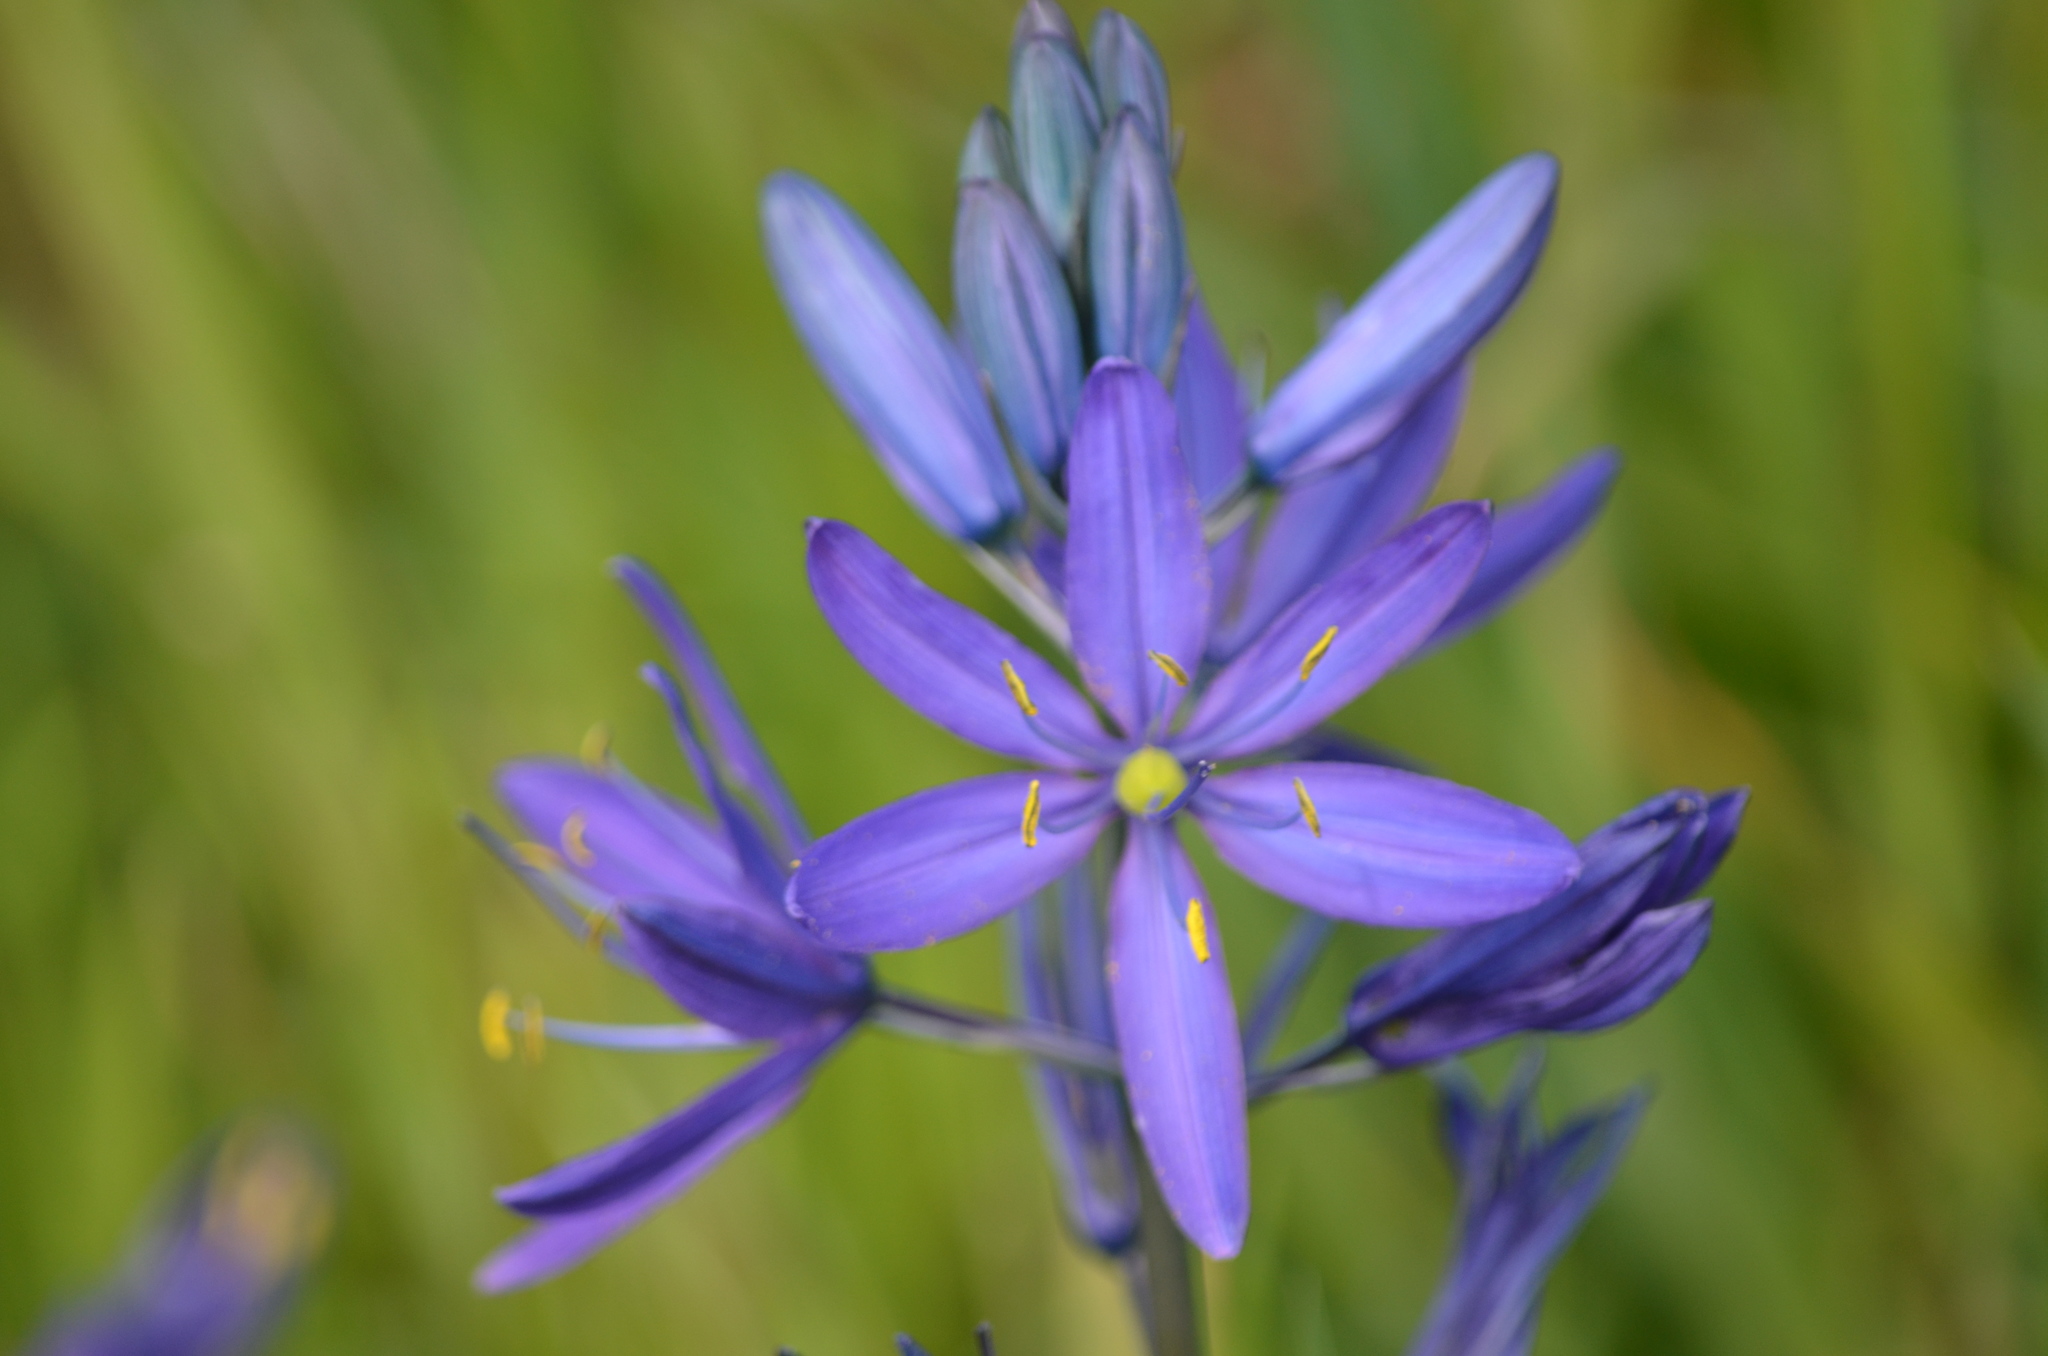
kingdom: Plantae
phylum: Tracheophyta
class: Liliopsida
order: Asparagales
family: Asparagaceae
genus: Camassia
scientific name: Camassia quamash
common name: Common camas
